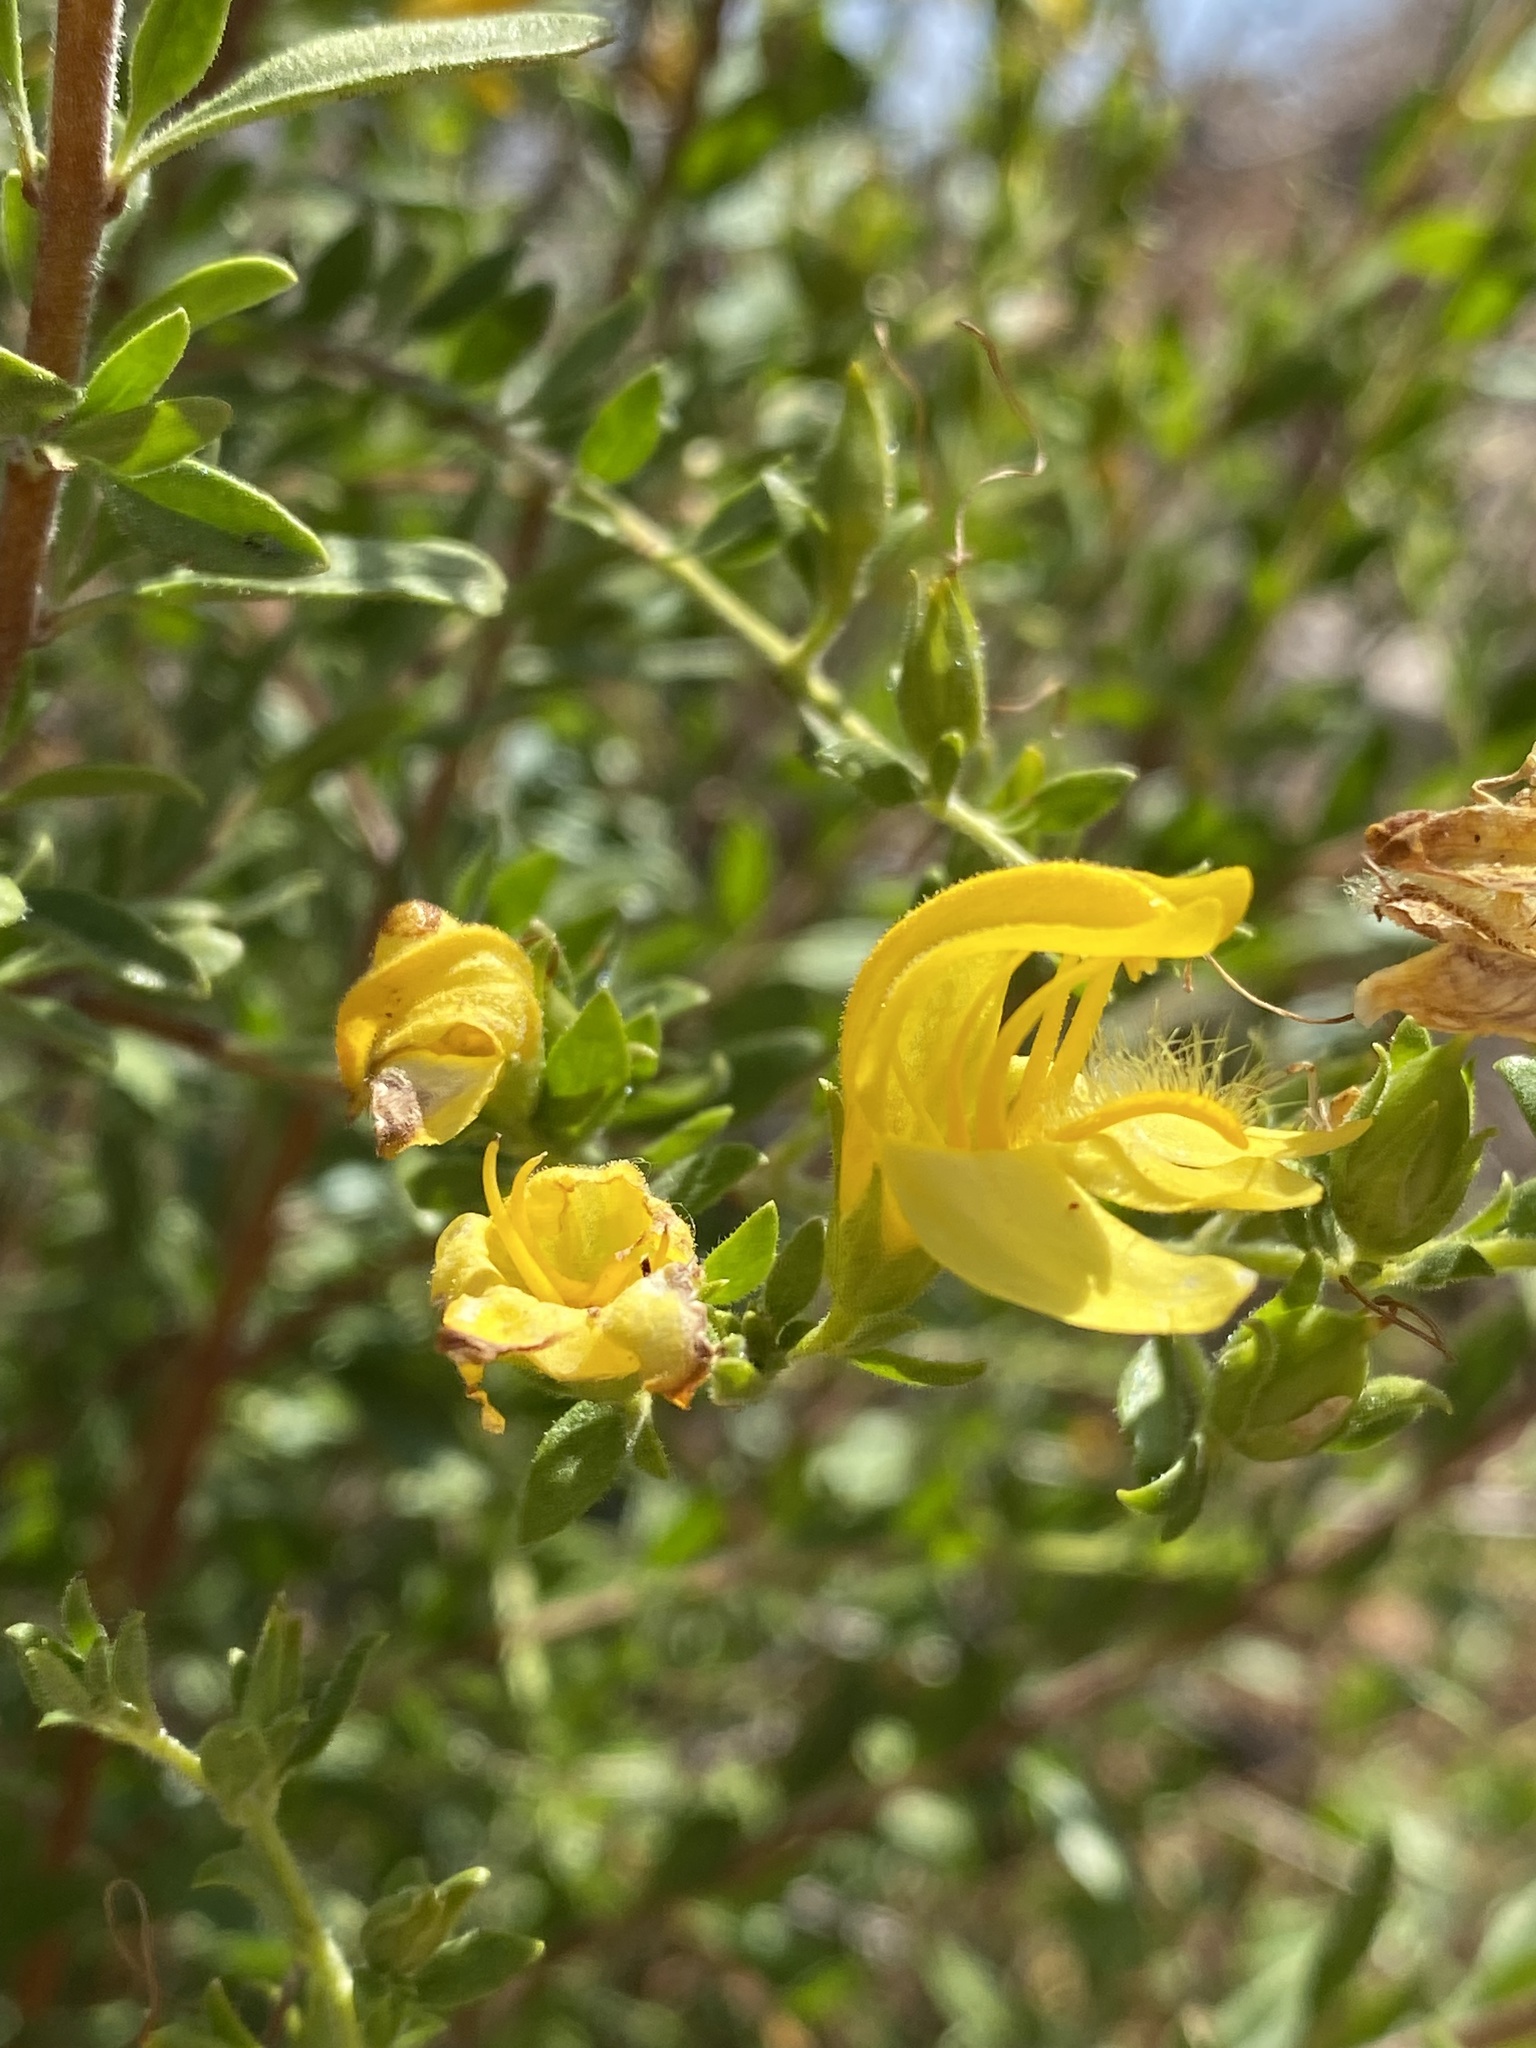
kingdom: Plantae
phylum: Tracheophyta
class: Magnoliopsida
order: Lamiales
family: Plantaginaceae
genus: Keckiella
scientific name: Keckiella antirrhinoides
